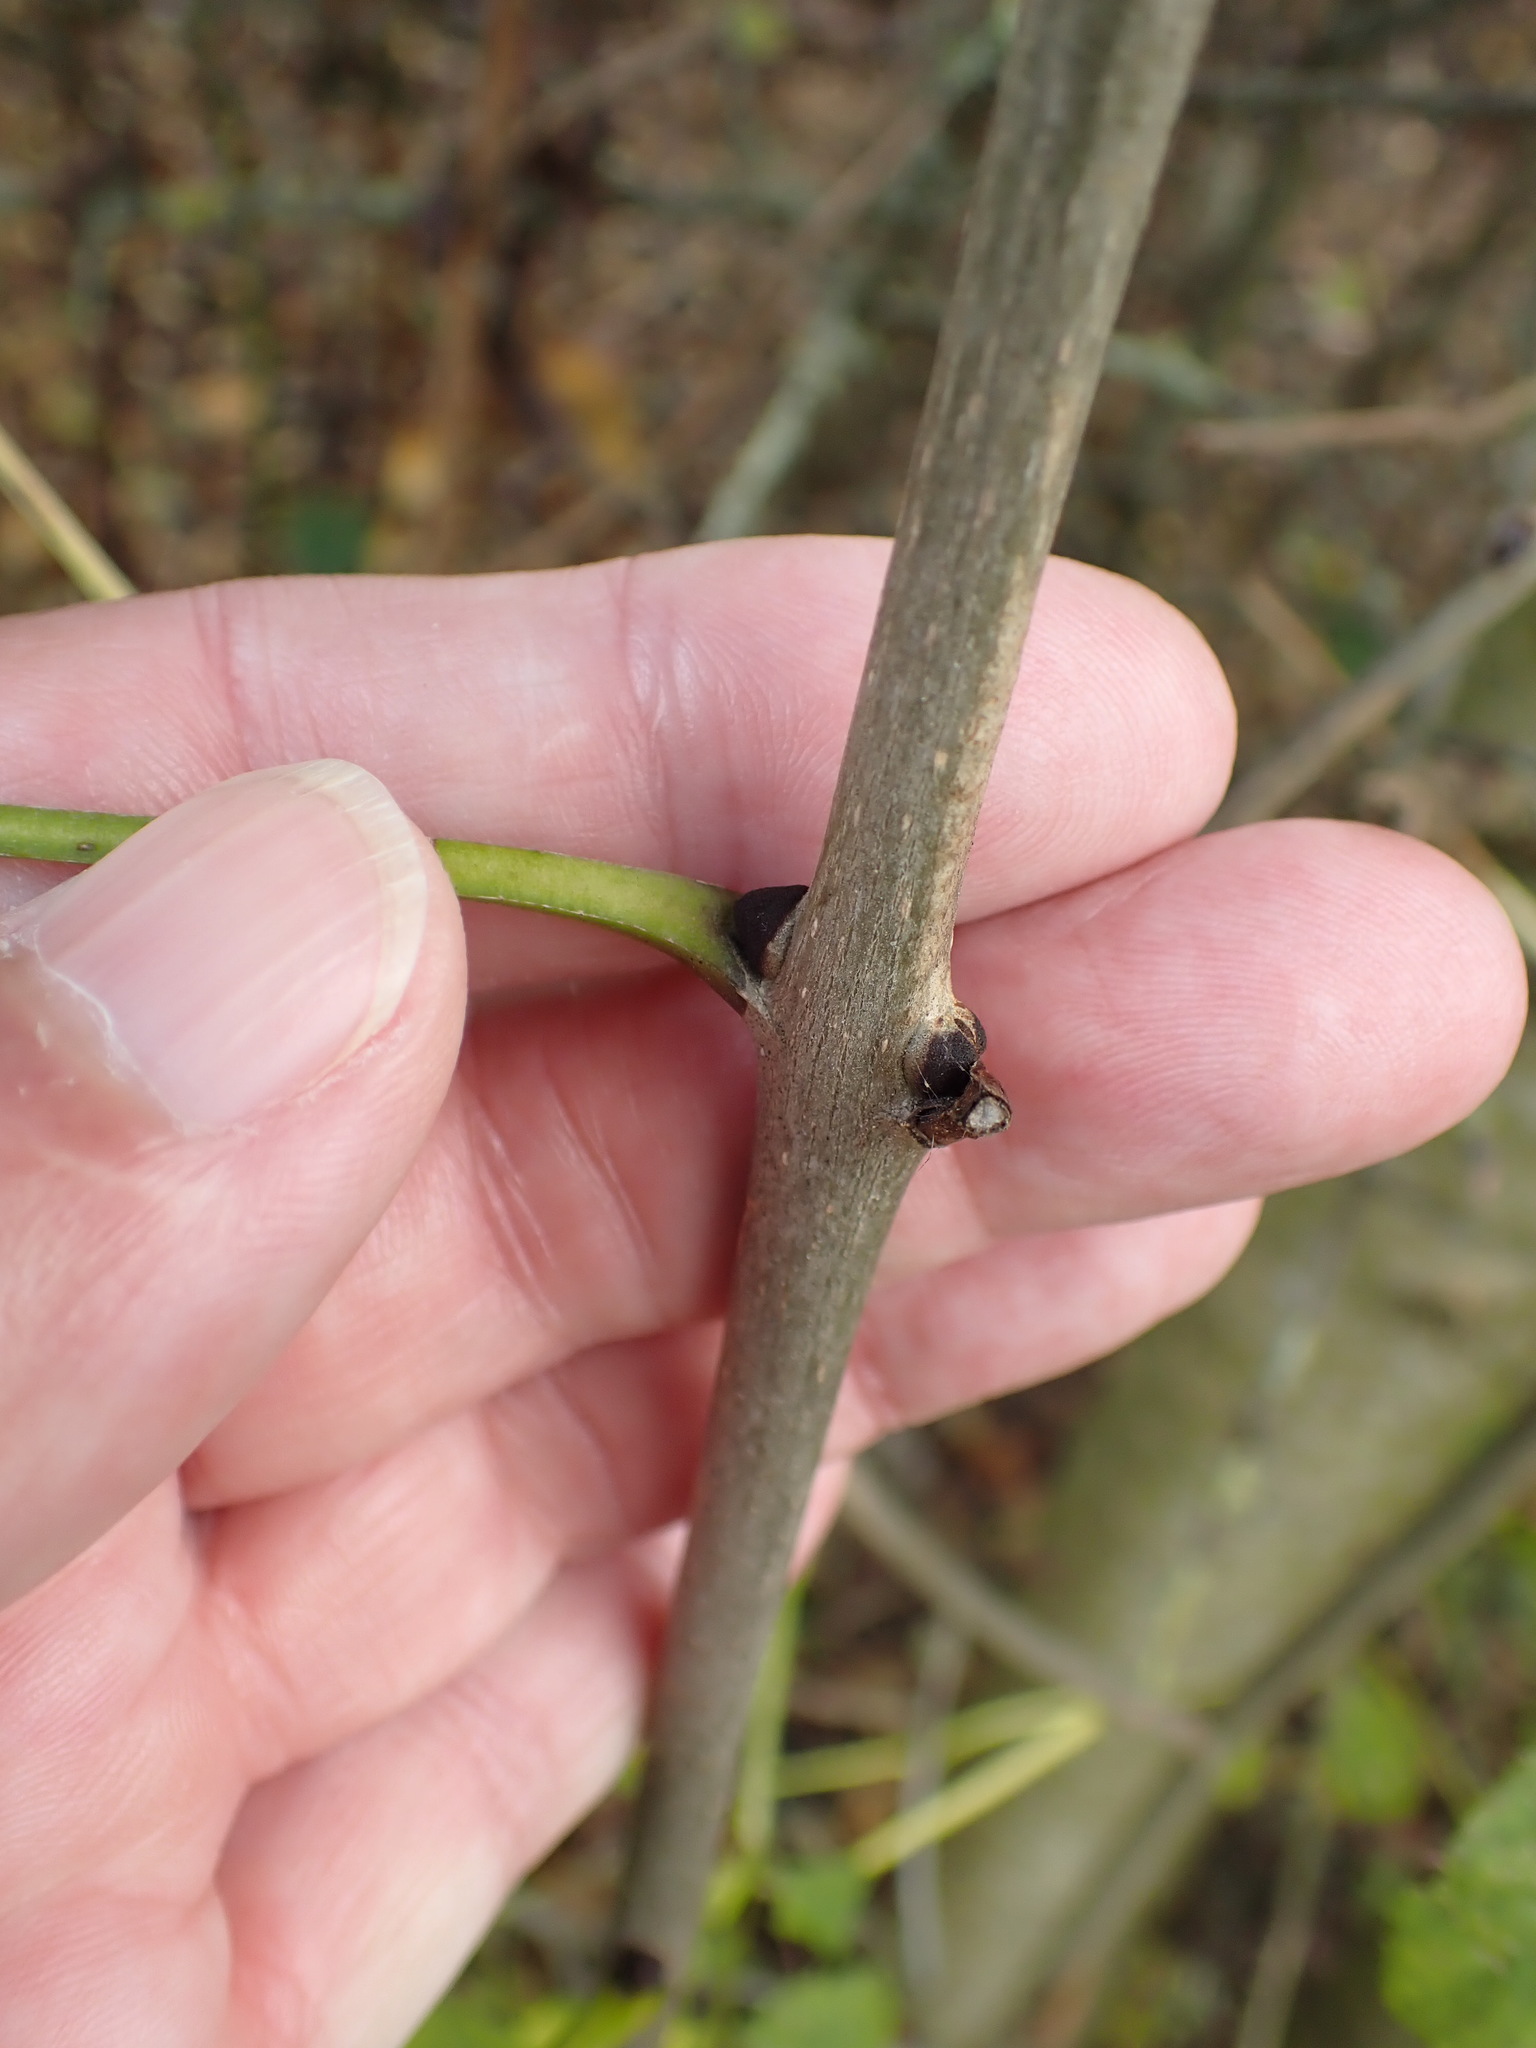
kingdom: Plantae
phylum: Tracheophyta
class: Magnoliopsida
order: Lamiales
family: Oleaceae
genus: Fraxinus
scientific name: Fraxinus excelsior
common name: European ash
